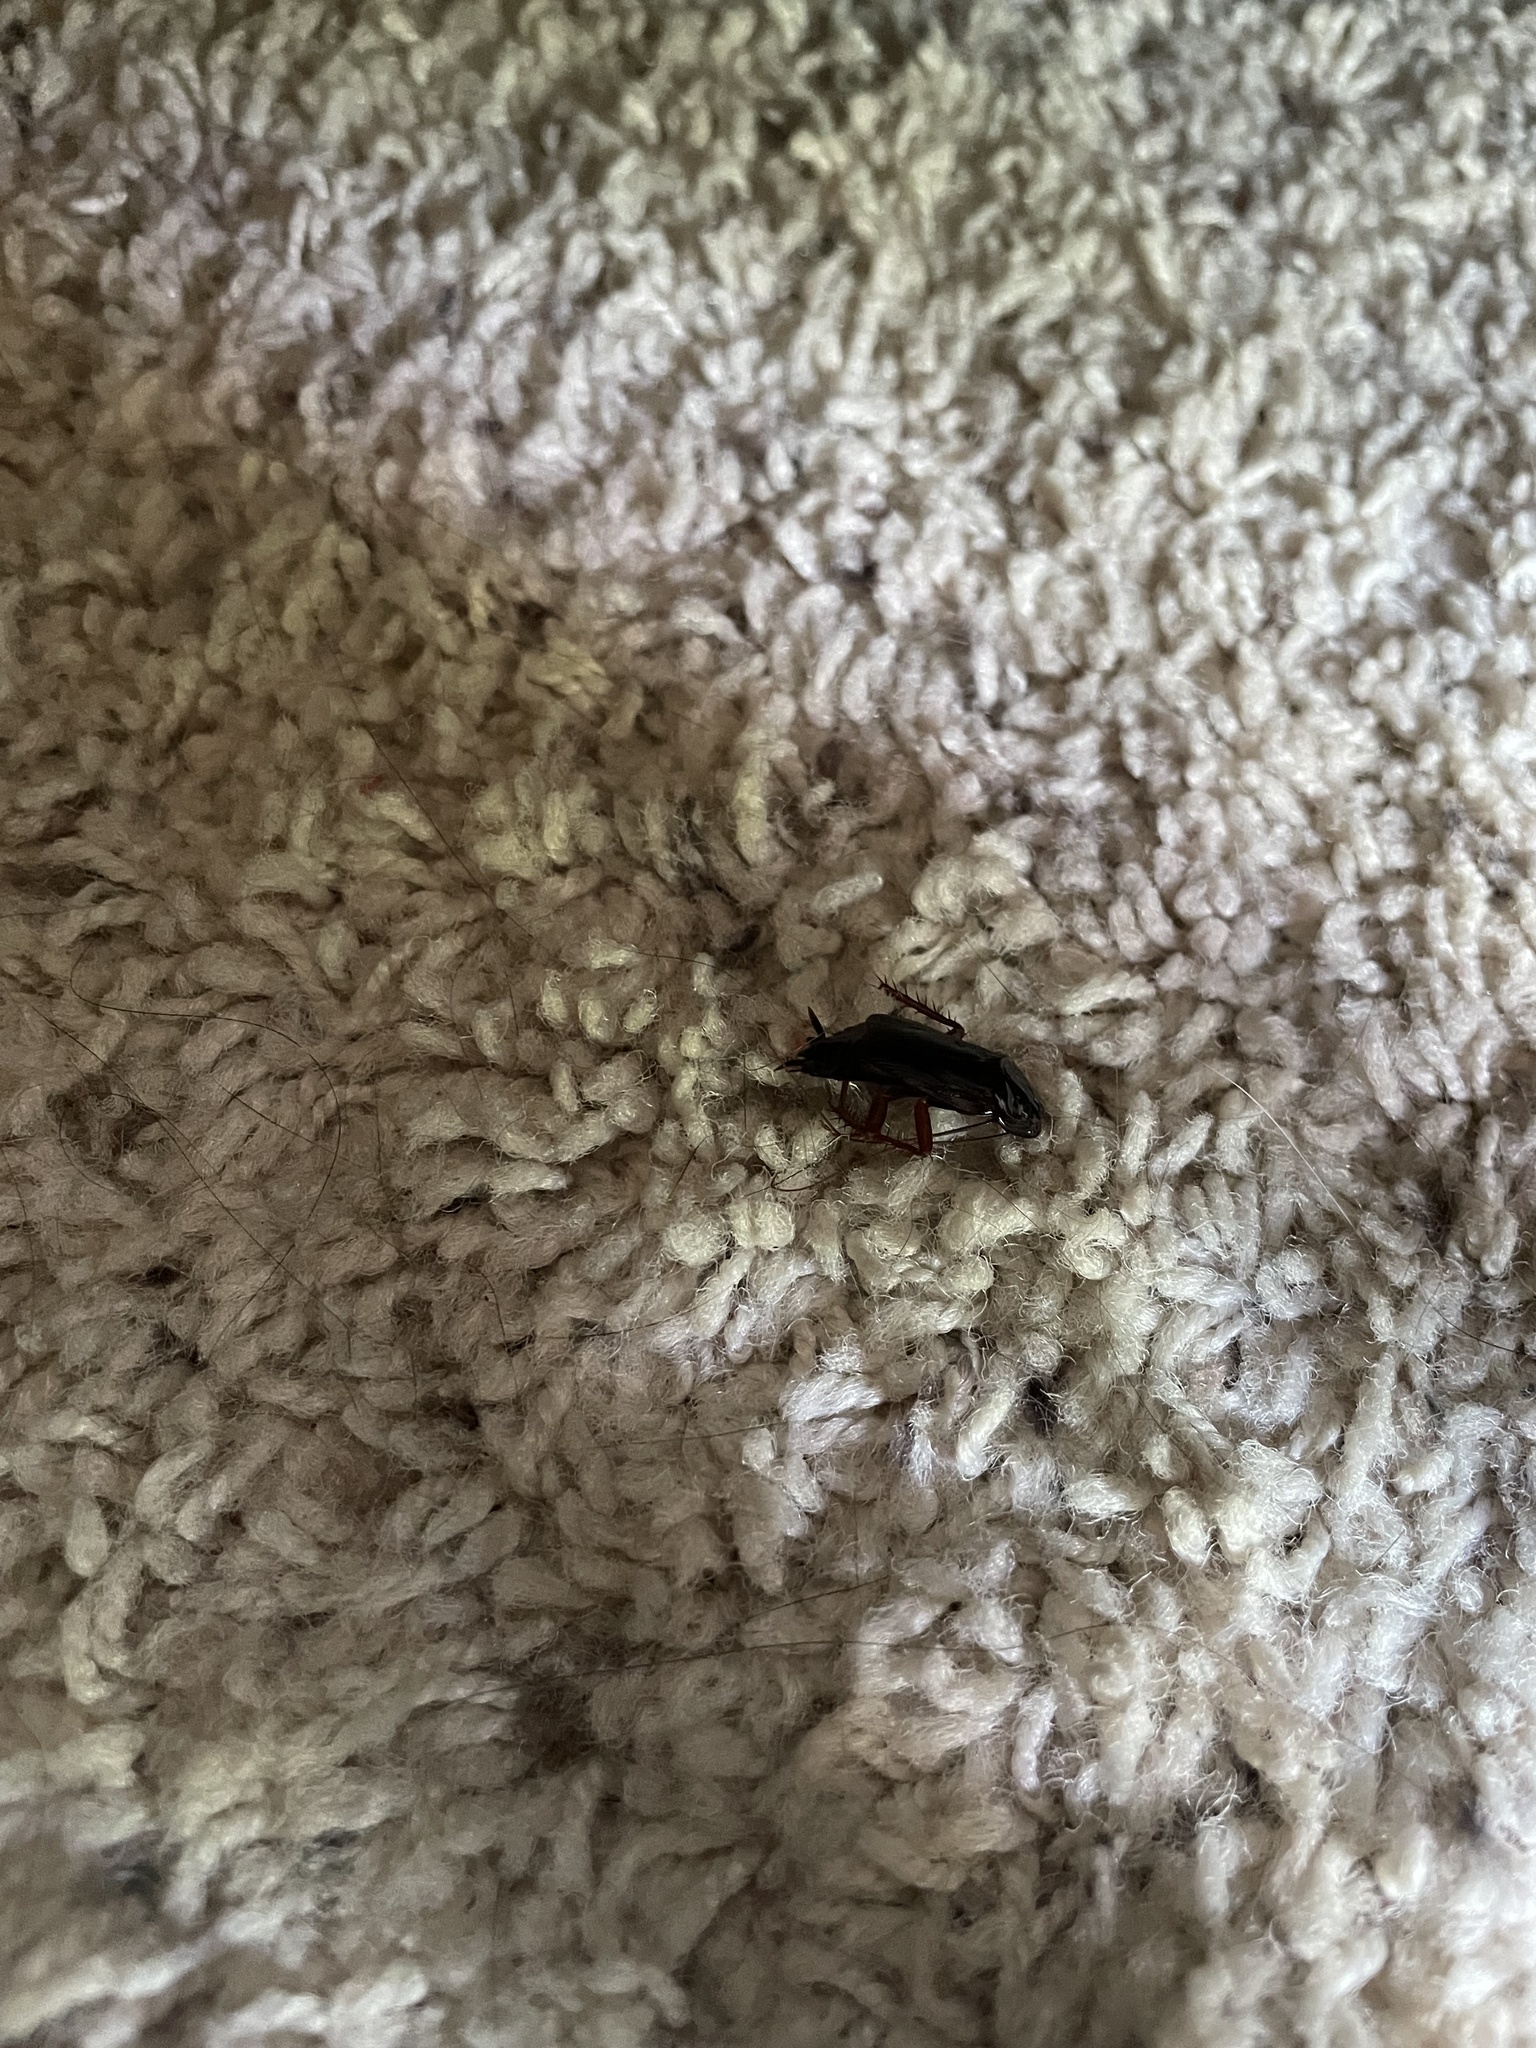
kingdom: Animalia
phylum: Arthropoda
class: Insecta
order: Blattodea
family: Blattidae
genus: Blatta
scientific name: Blatta orientalis
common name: Oriental cockroach
